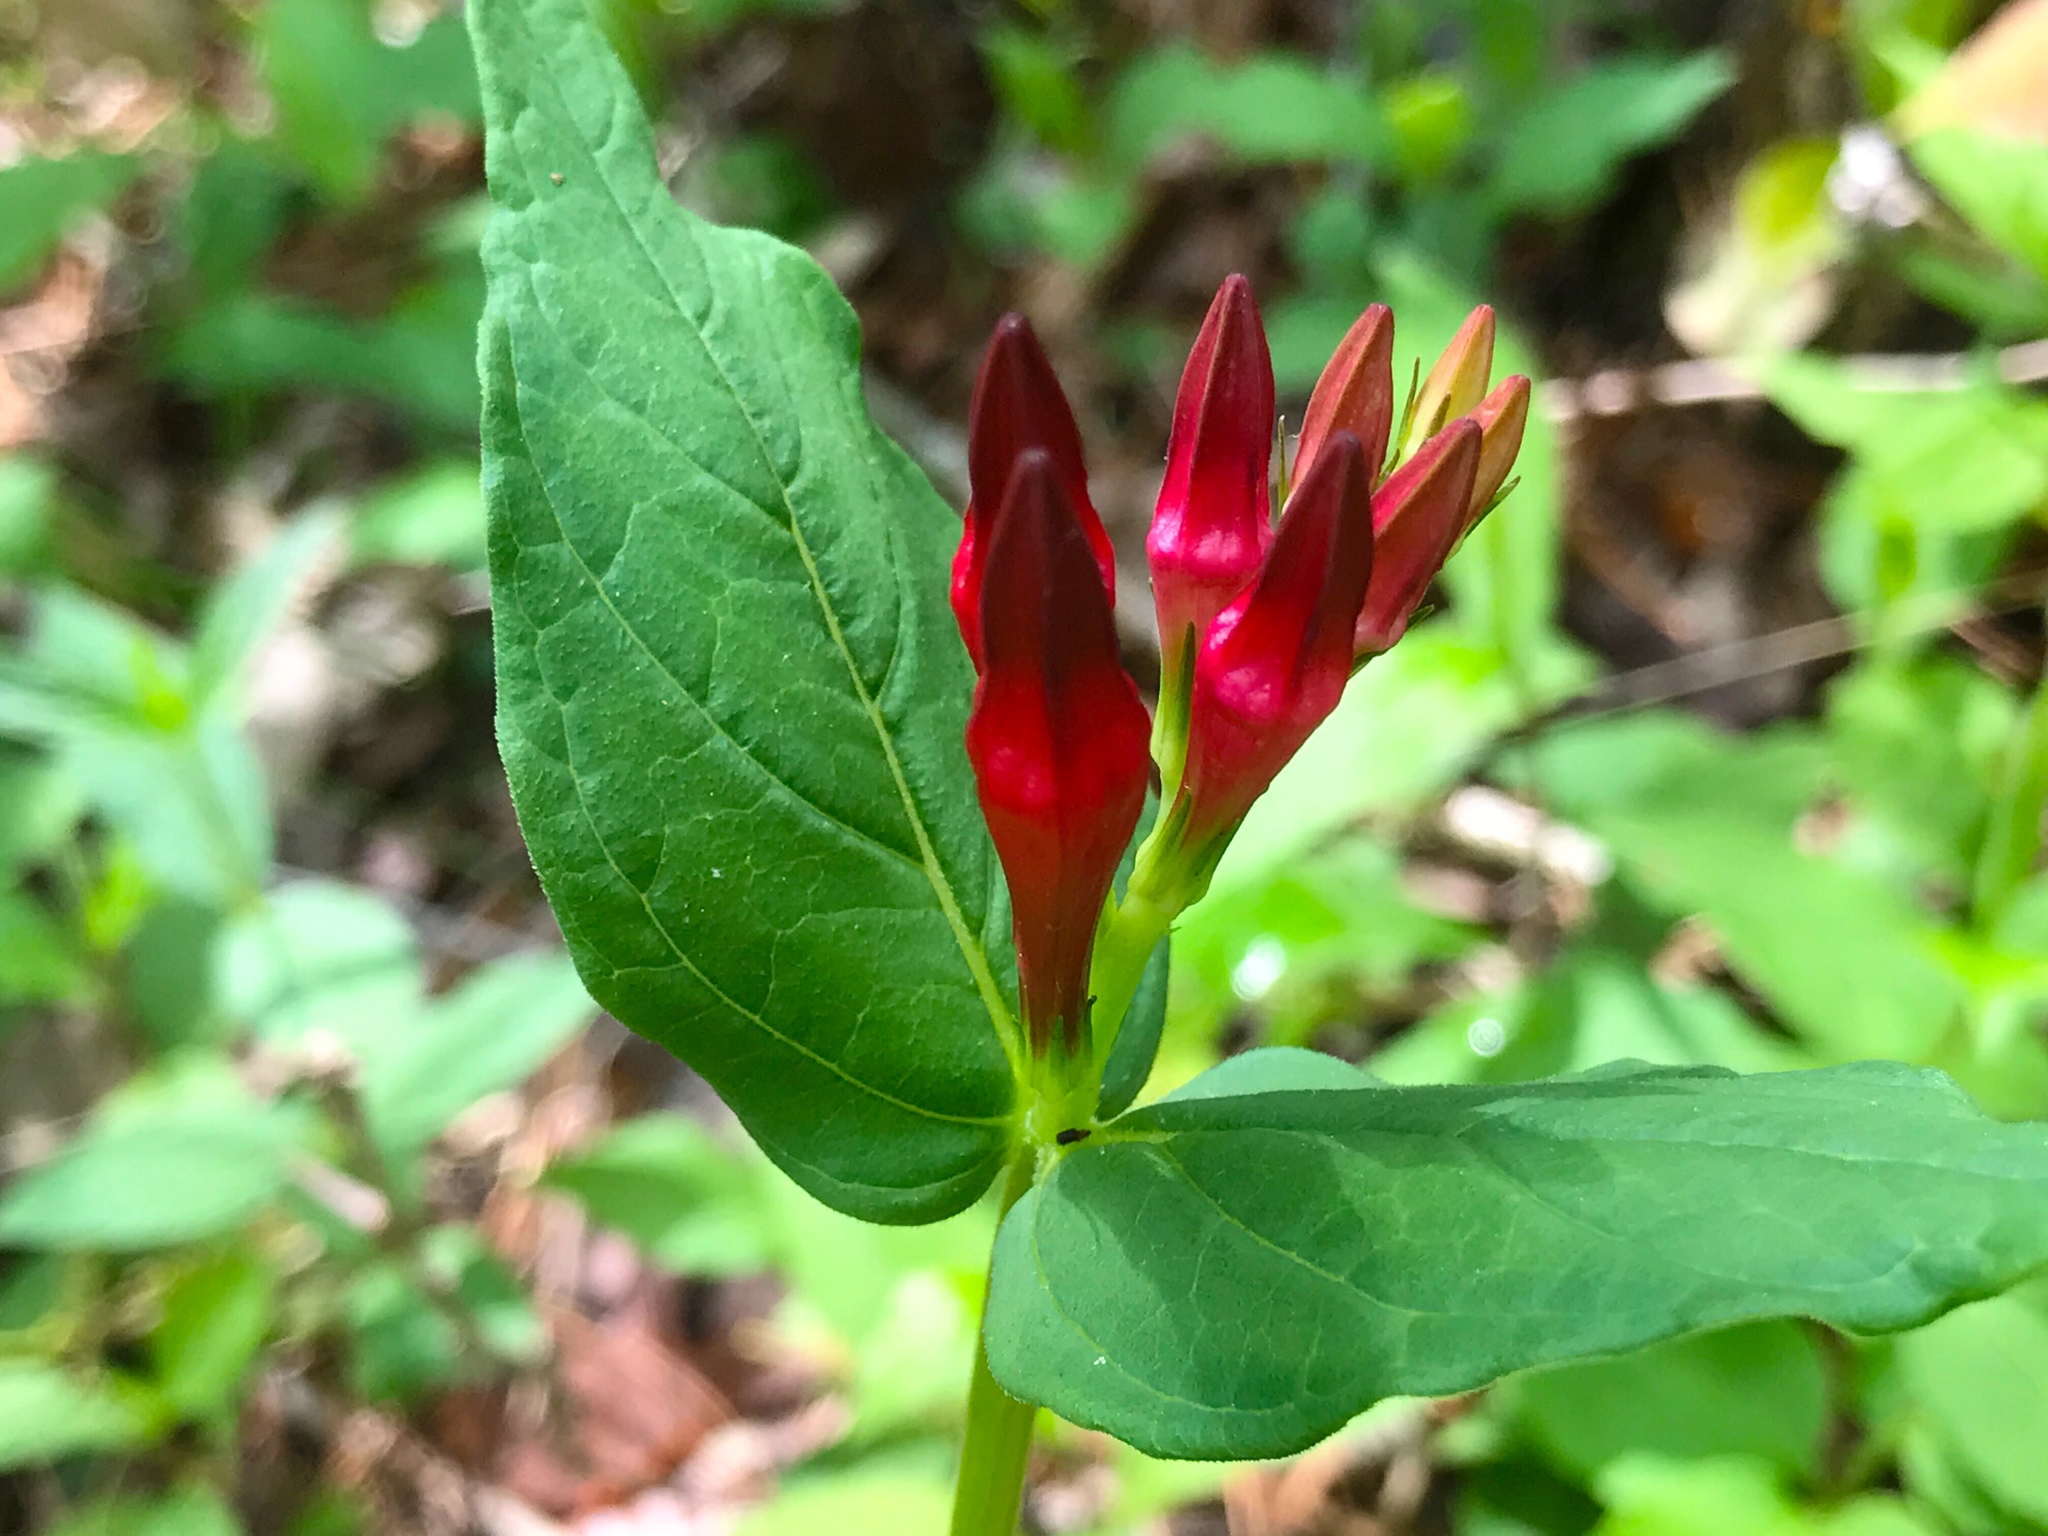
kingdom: Plantae
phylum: Tracheophyta
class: Magnoliopsida
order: Gentianales
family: Loganiaceae
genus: Spigelia
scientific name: Spigelia marilandica
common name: Indian-pink
